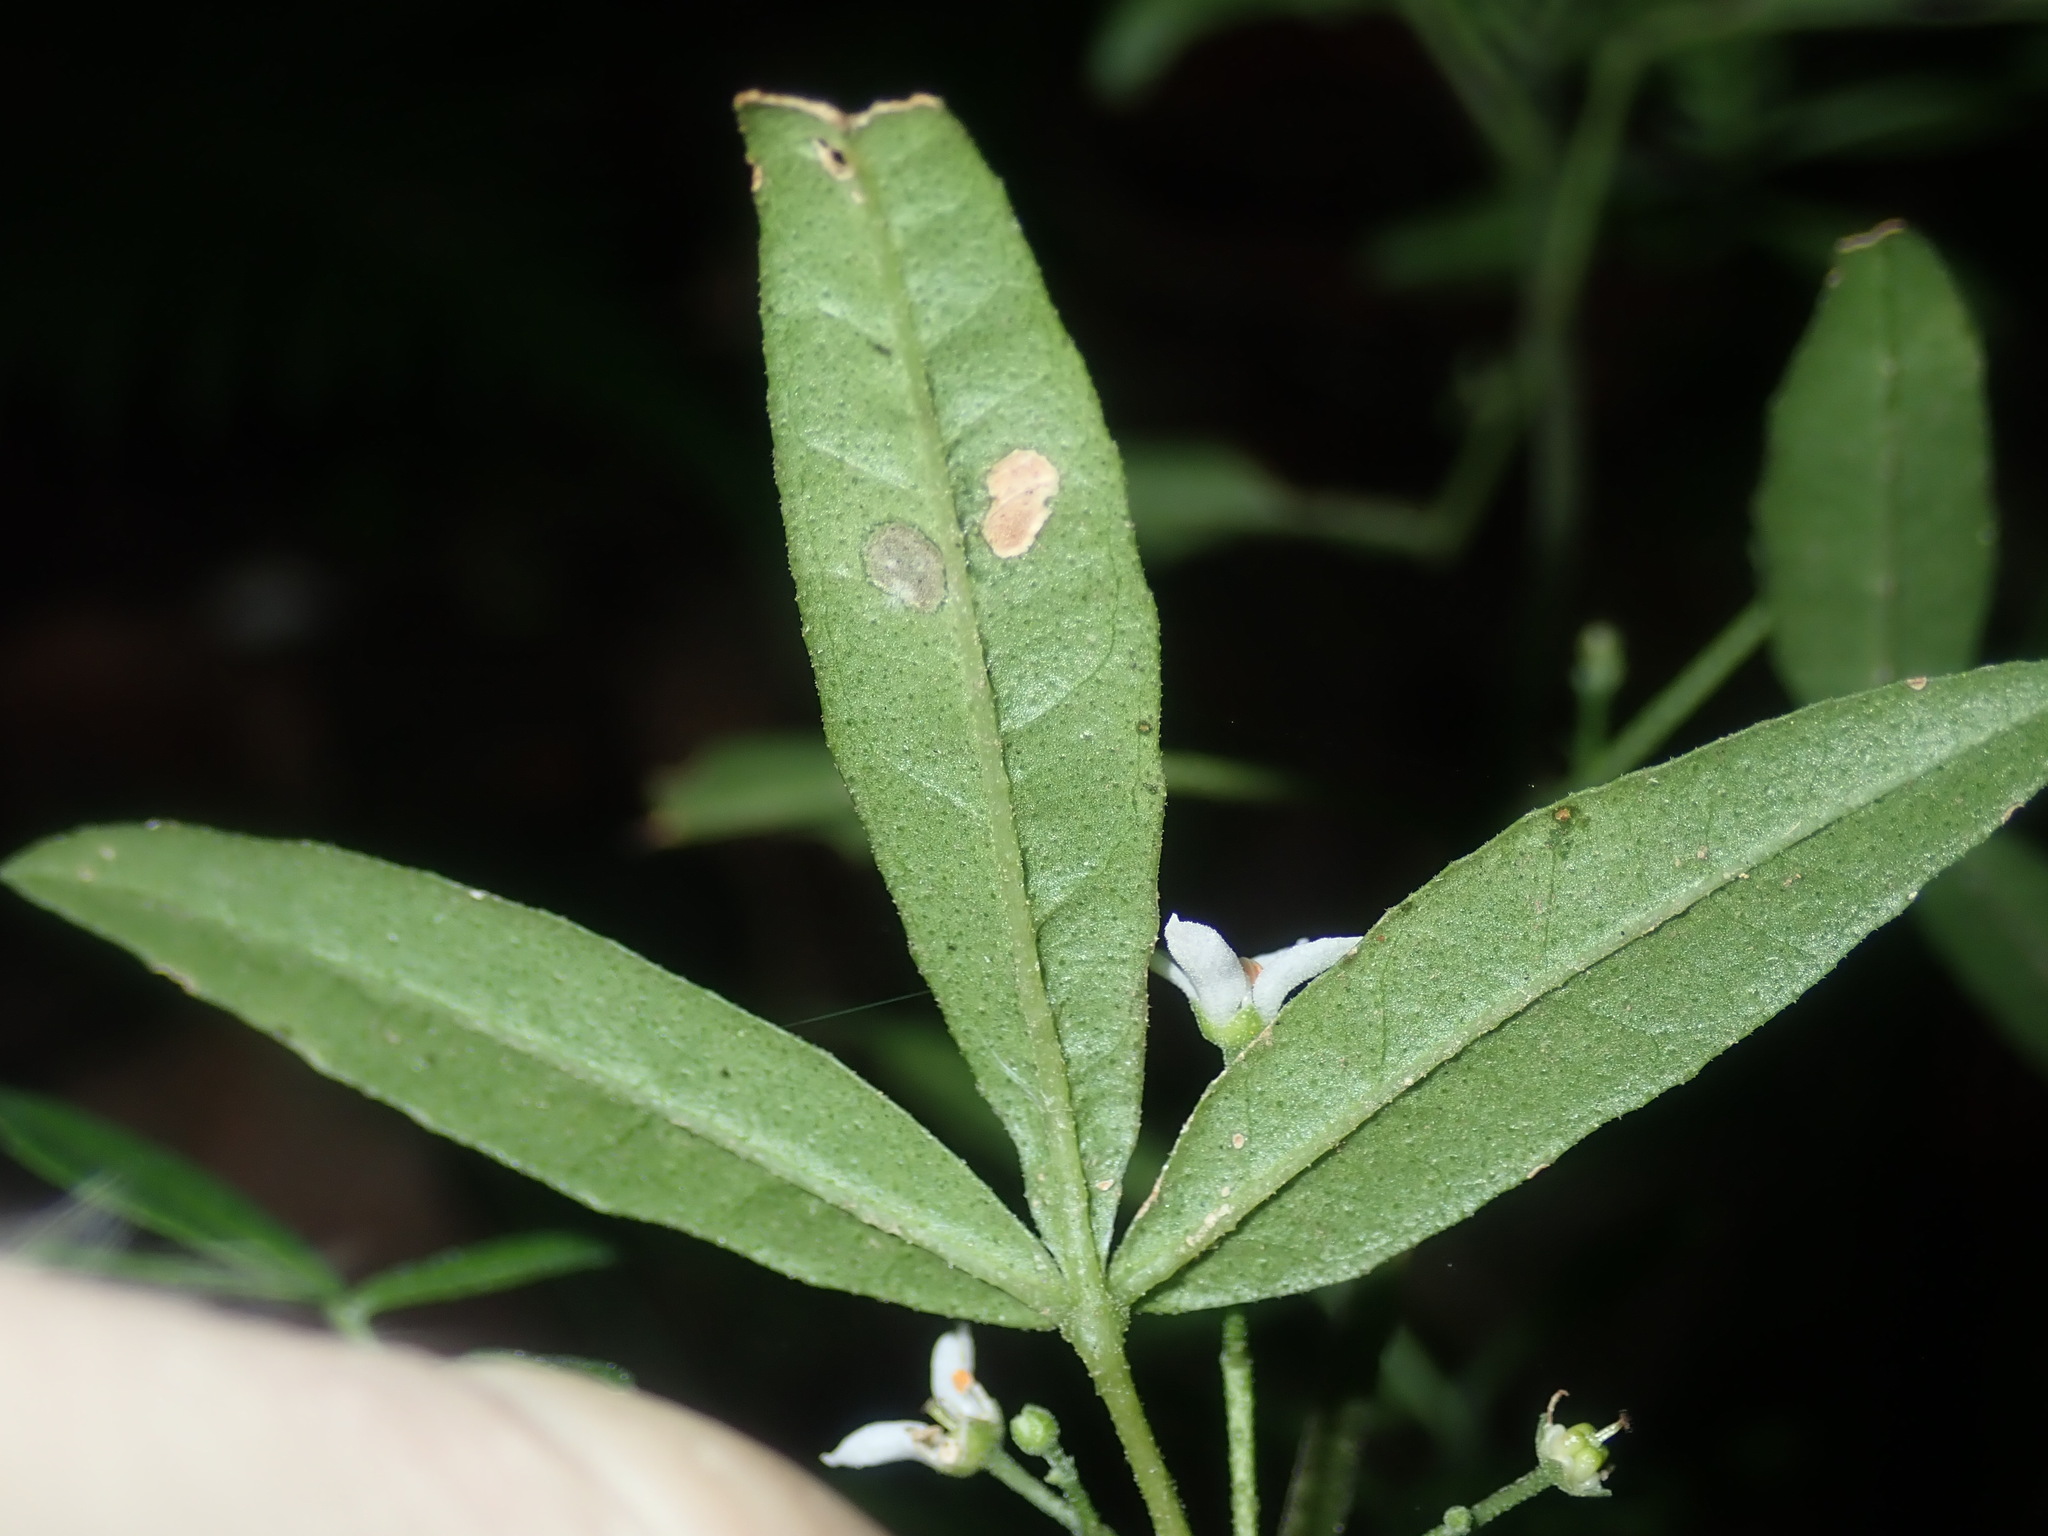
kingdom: Plantae
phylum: Tracheophyta
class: Magnoliopsida
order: Sapindales
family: Rutaceae
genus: Zieria
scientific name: Zieria smithii
